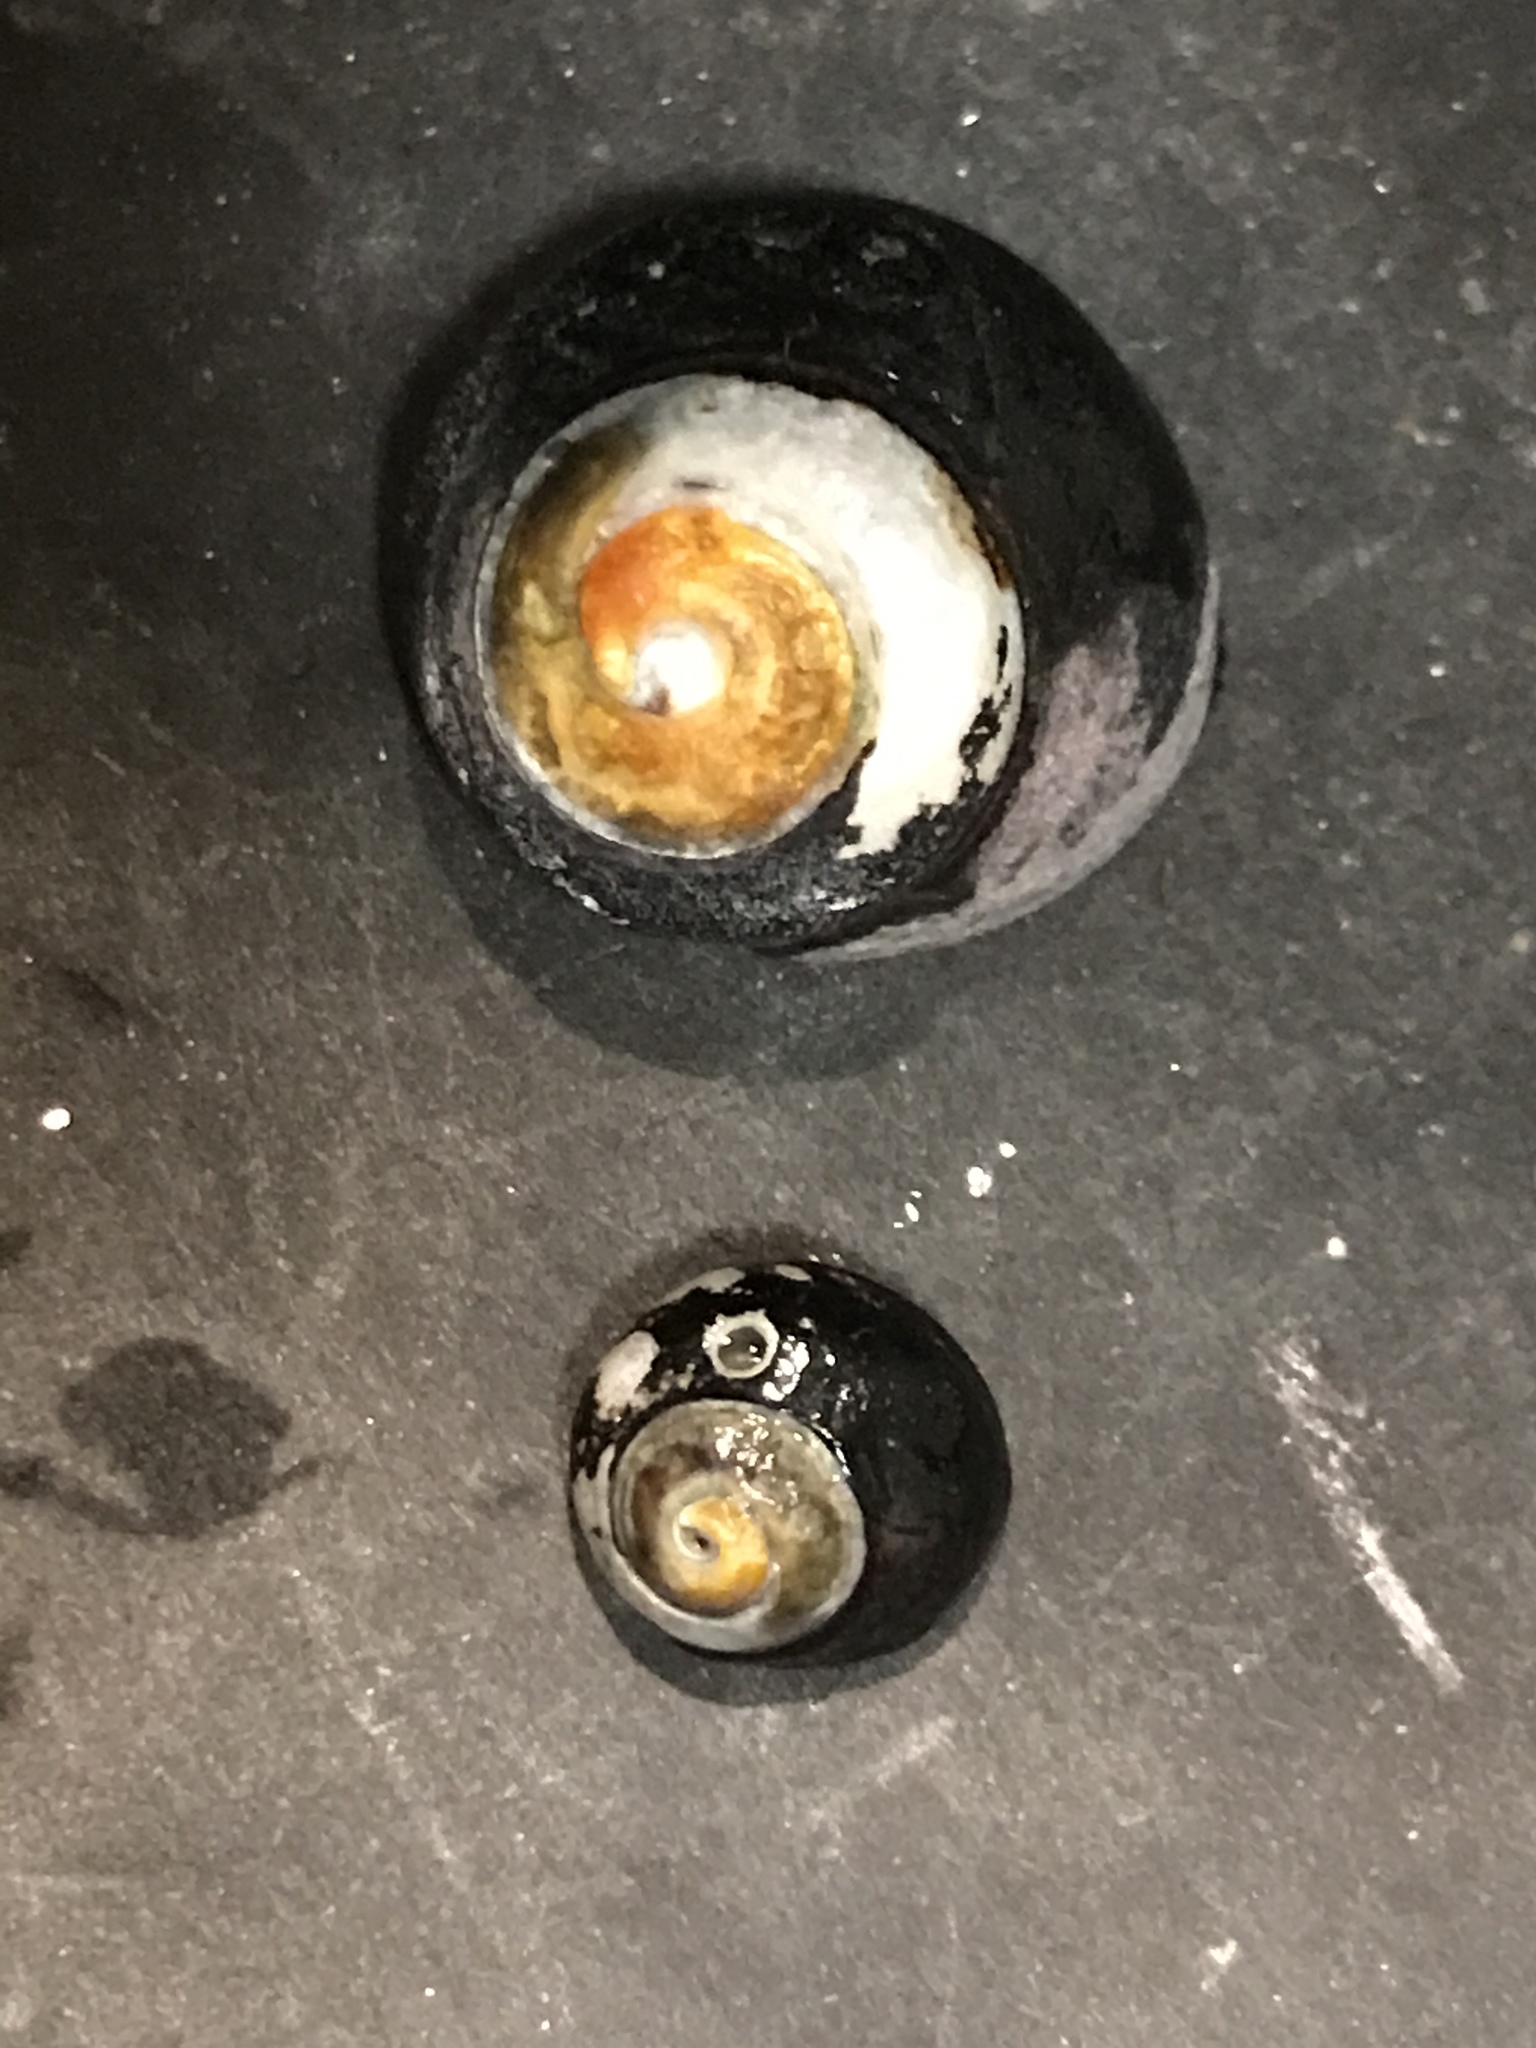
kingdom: Animalia
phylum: Mollusca
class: Gastropoda
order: Trochida
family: Tegulidae
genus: Tegula
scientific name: Tegula funebralis
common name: Black tegula
